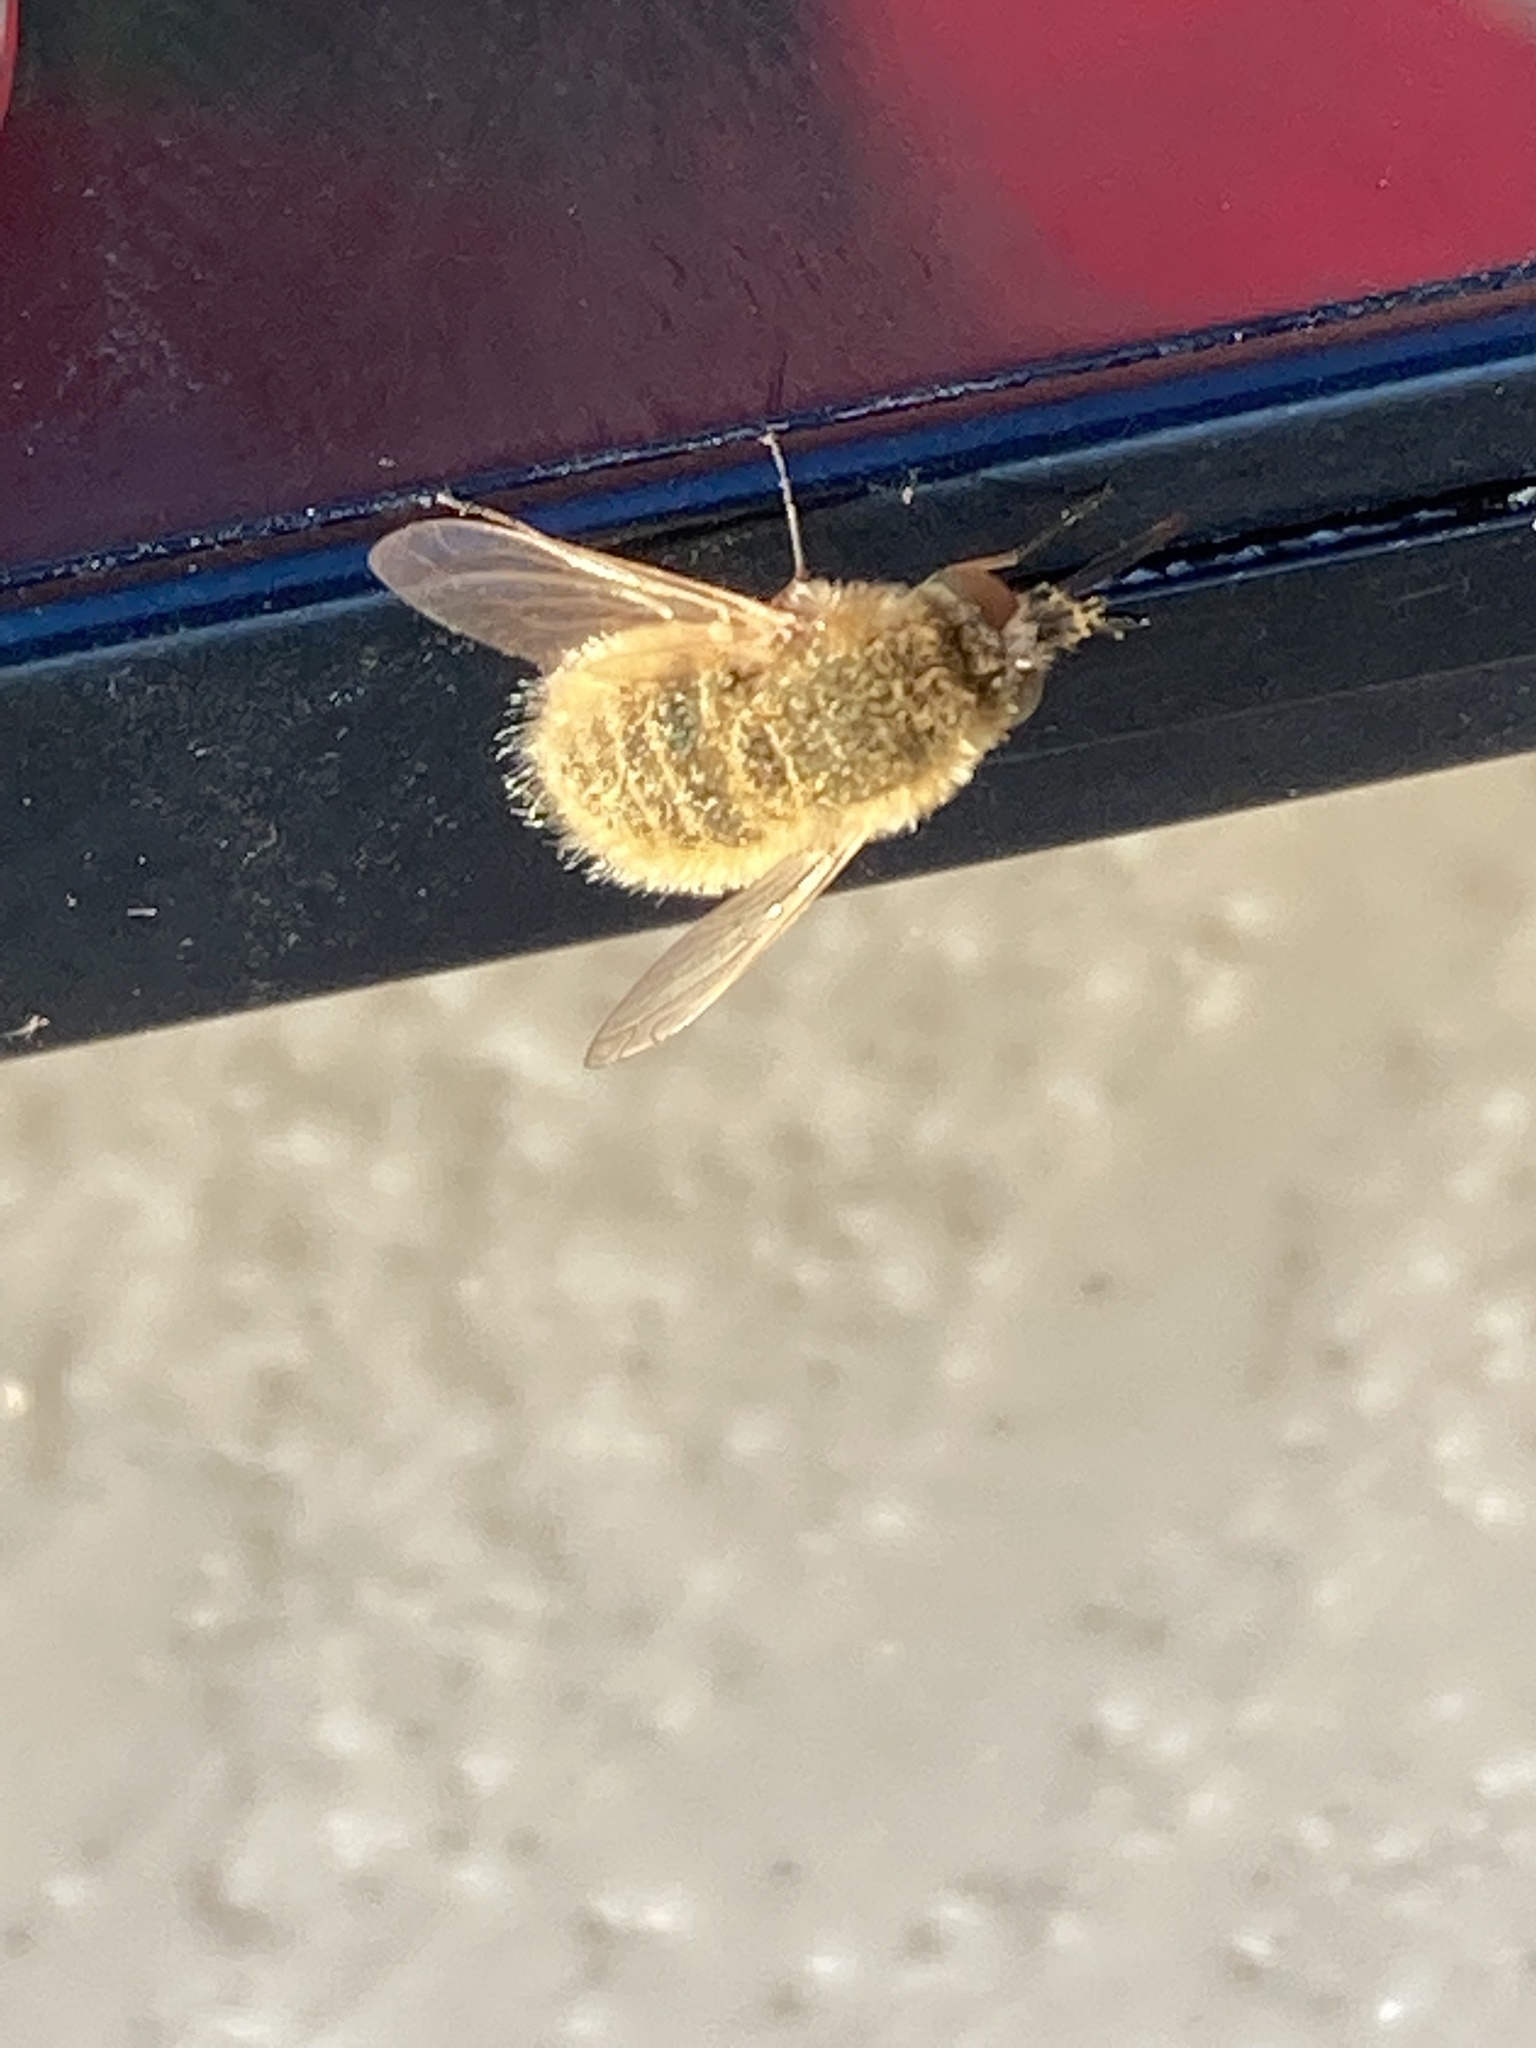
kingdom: Animalia
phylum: Arthropoda
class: Insecta
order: Diptera
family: Bombyliidae
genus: Sparnopolius
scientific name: Sparnopolius confusus
